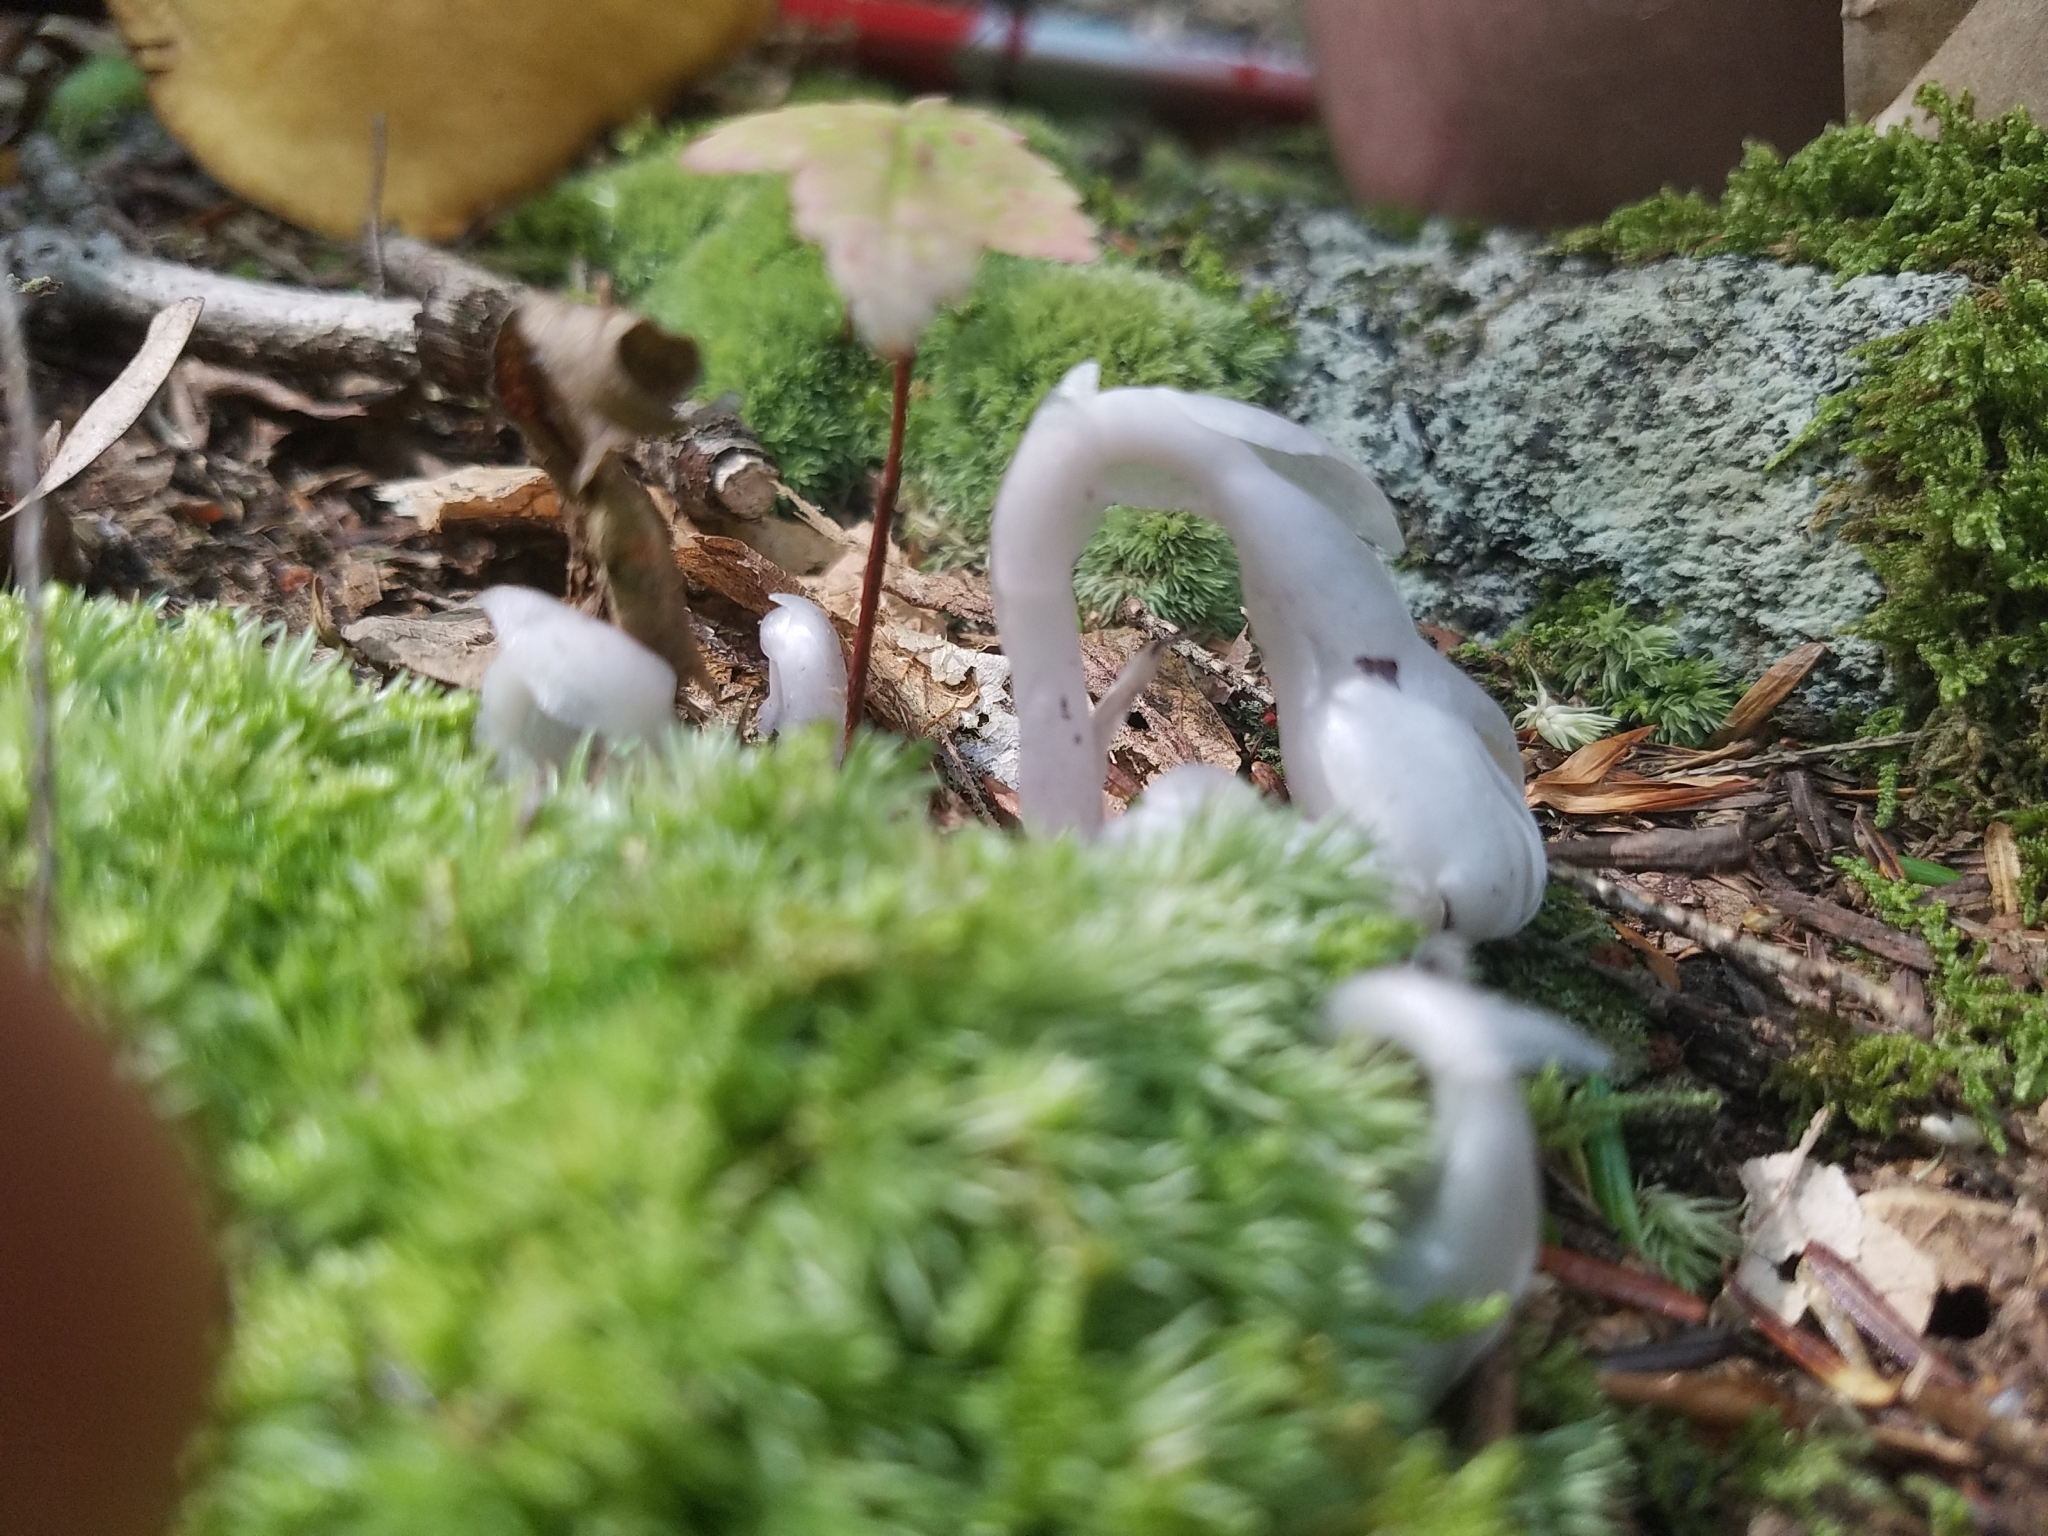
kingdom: Plantae
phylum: Tracheophyta
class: Magnoliopsida
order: Ericales
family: Ericaceae
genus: Monotropa
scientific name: Monotropa uniflora
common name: Convulsion root
